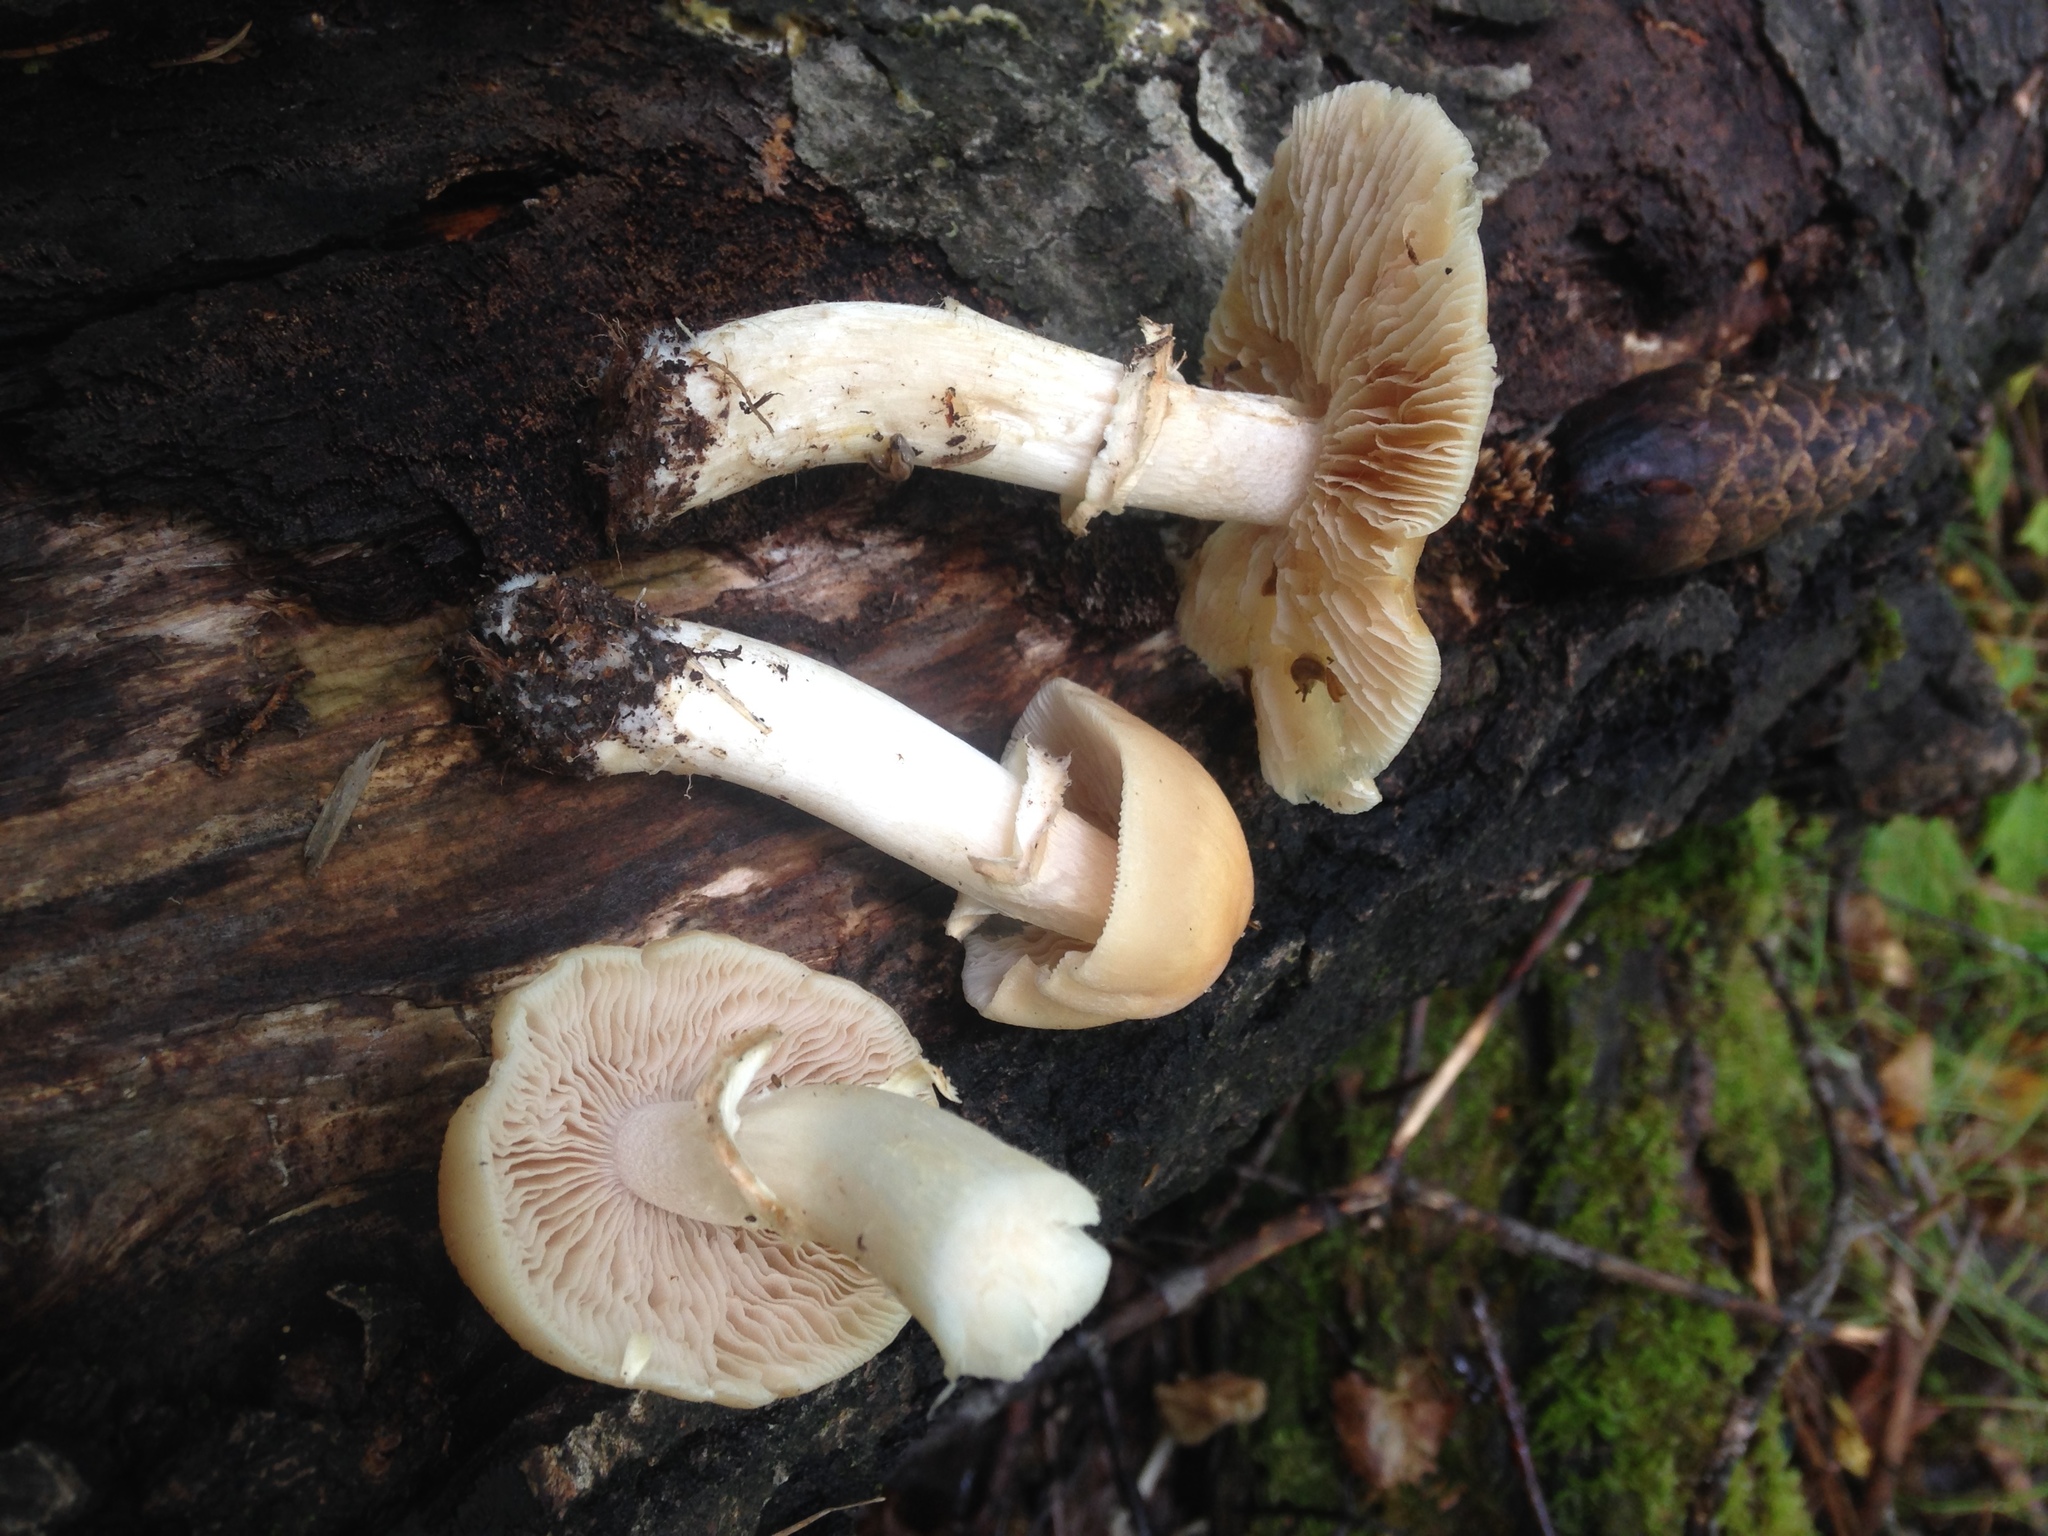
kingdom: Fungi
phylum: Basidiomycota
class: Agaricomycetes
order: Agaricales
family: Cortinariaceae
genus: Cortinarius
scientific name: Cortinarius caperatus
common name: The gypsy
